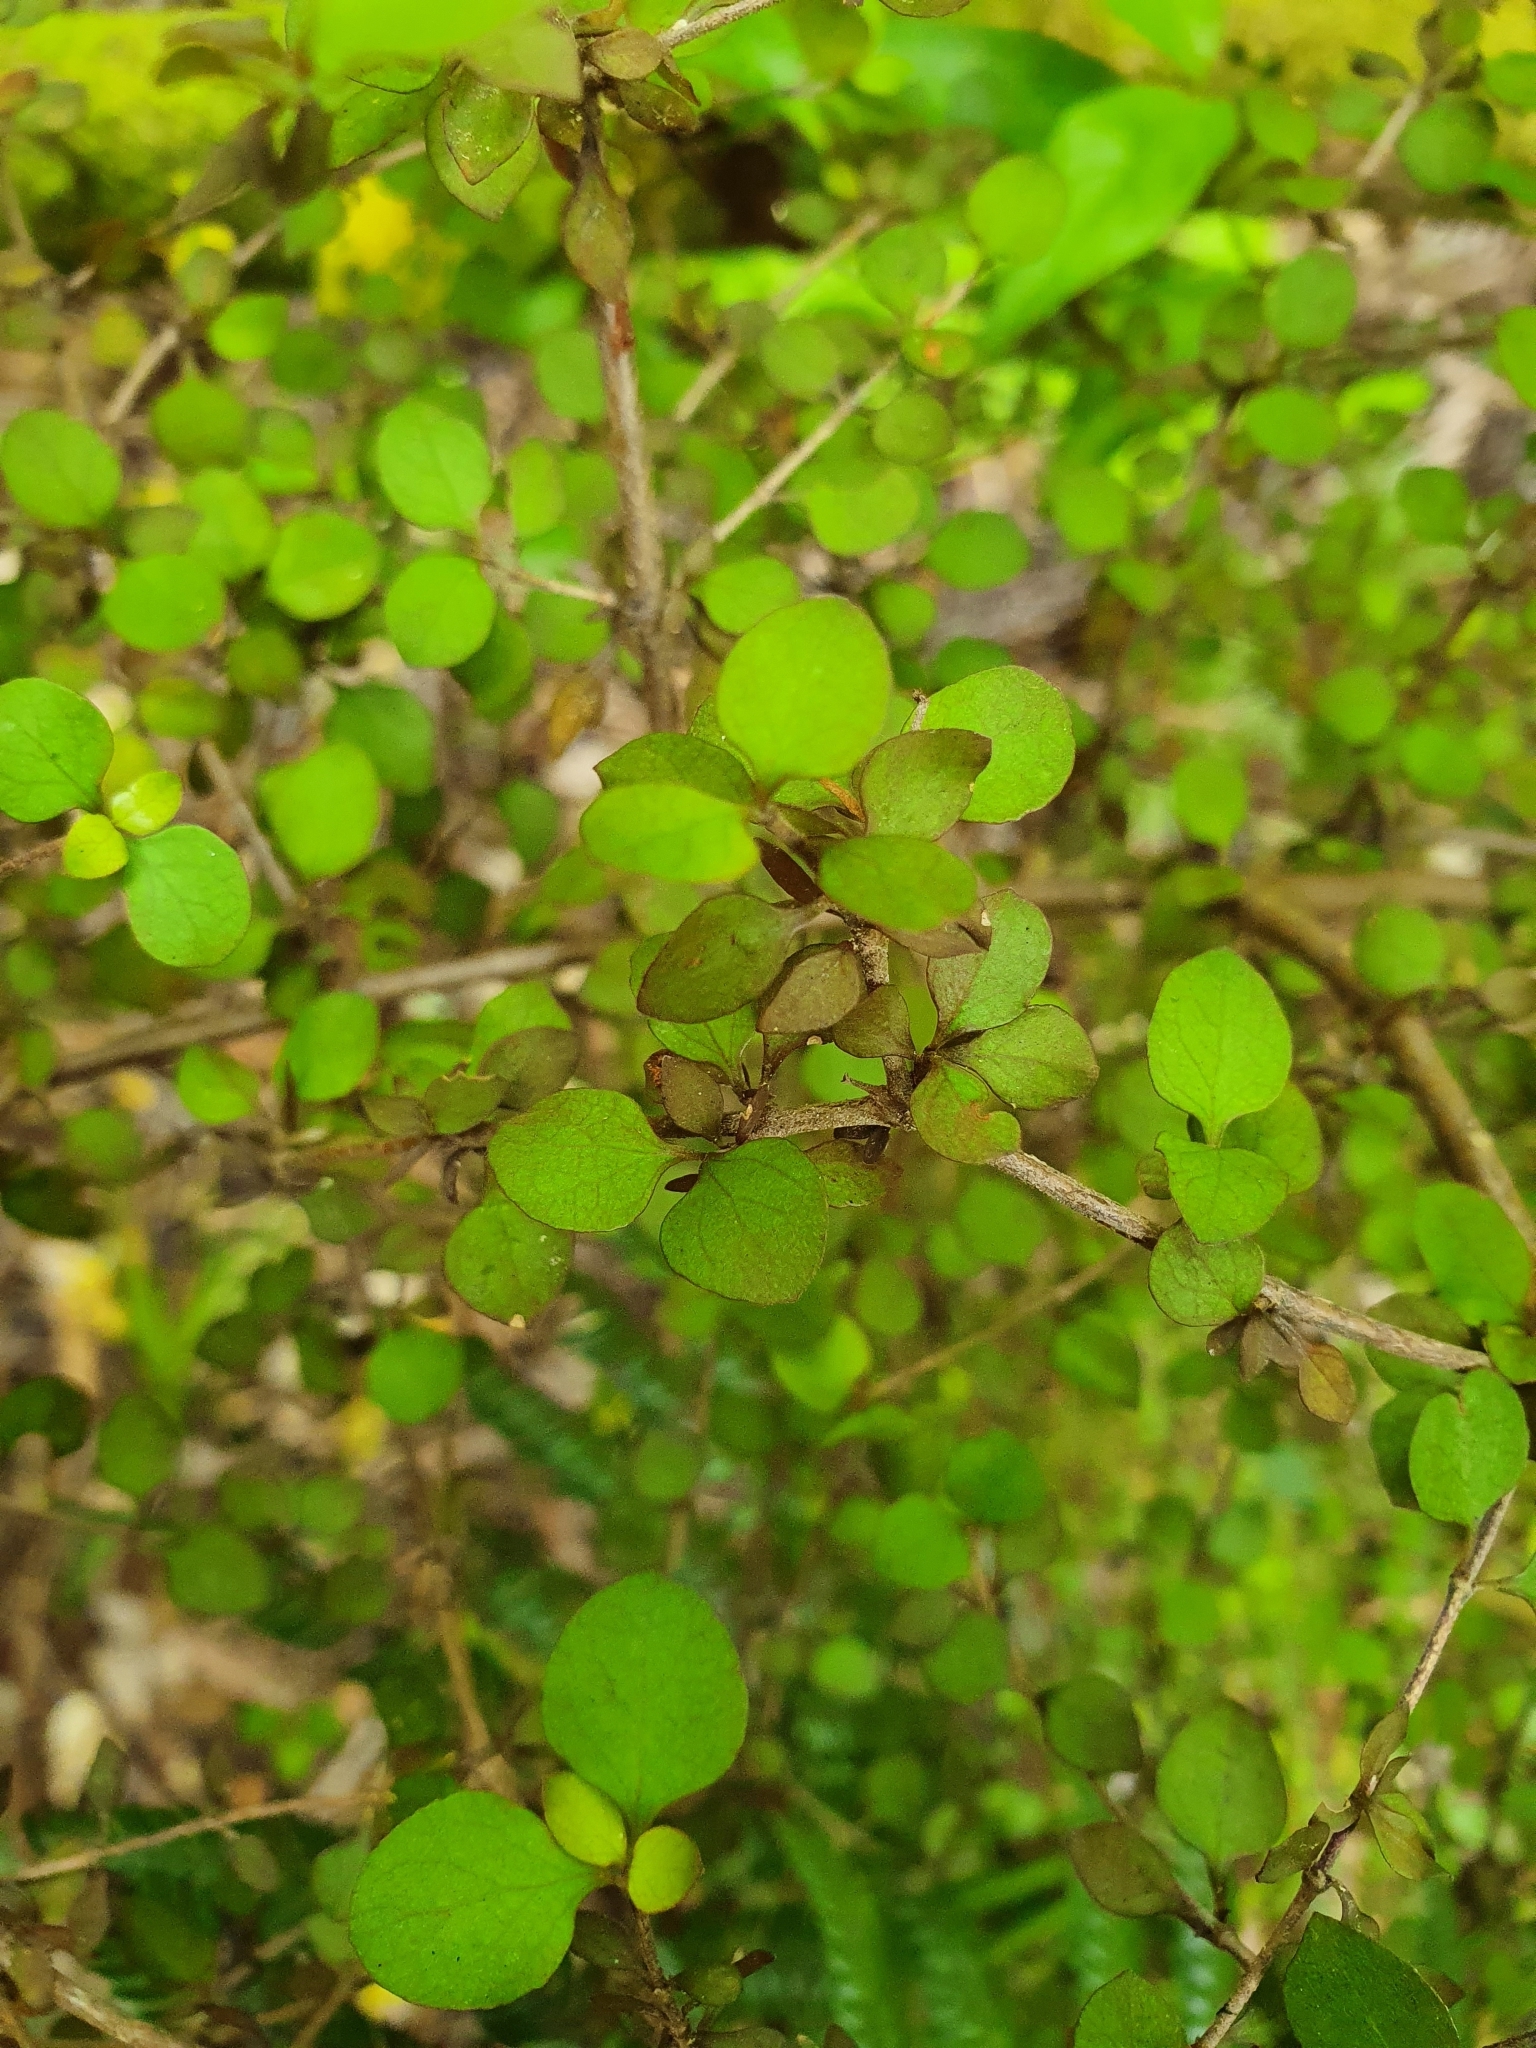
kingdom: Plantae
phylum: Tracheophyta
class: Magnoliopsida
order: Gentianales
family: Rubiaceae
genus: Coprosma
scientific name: Coprosma rhamnoides
